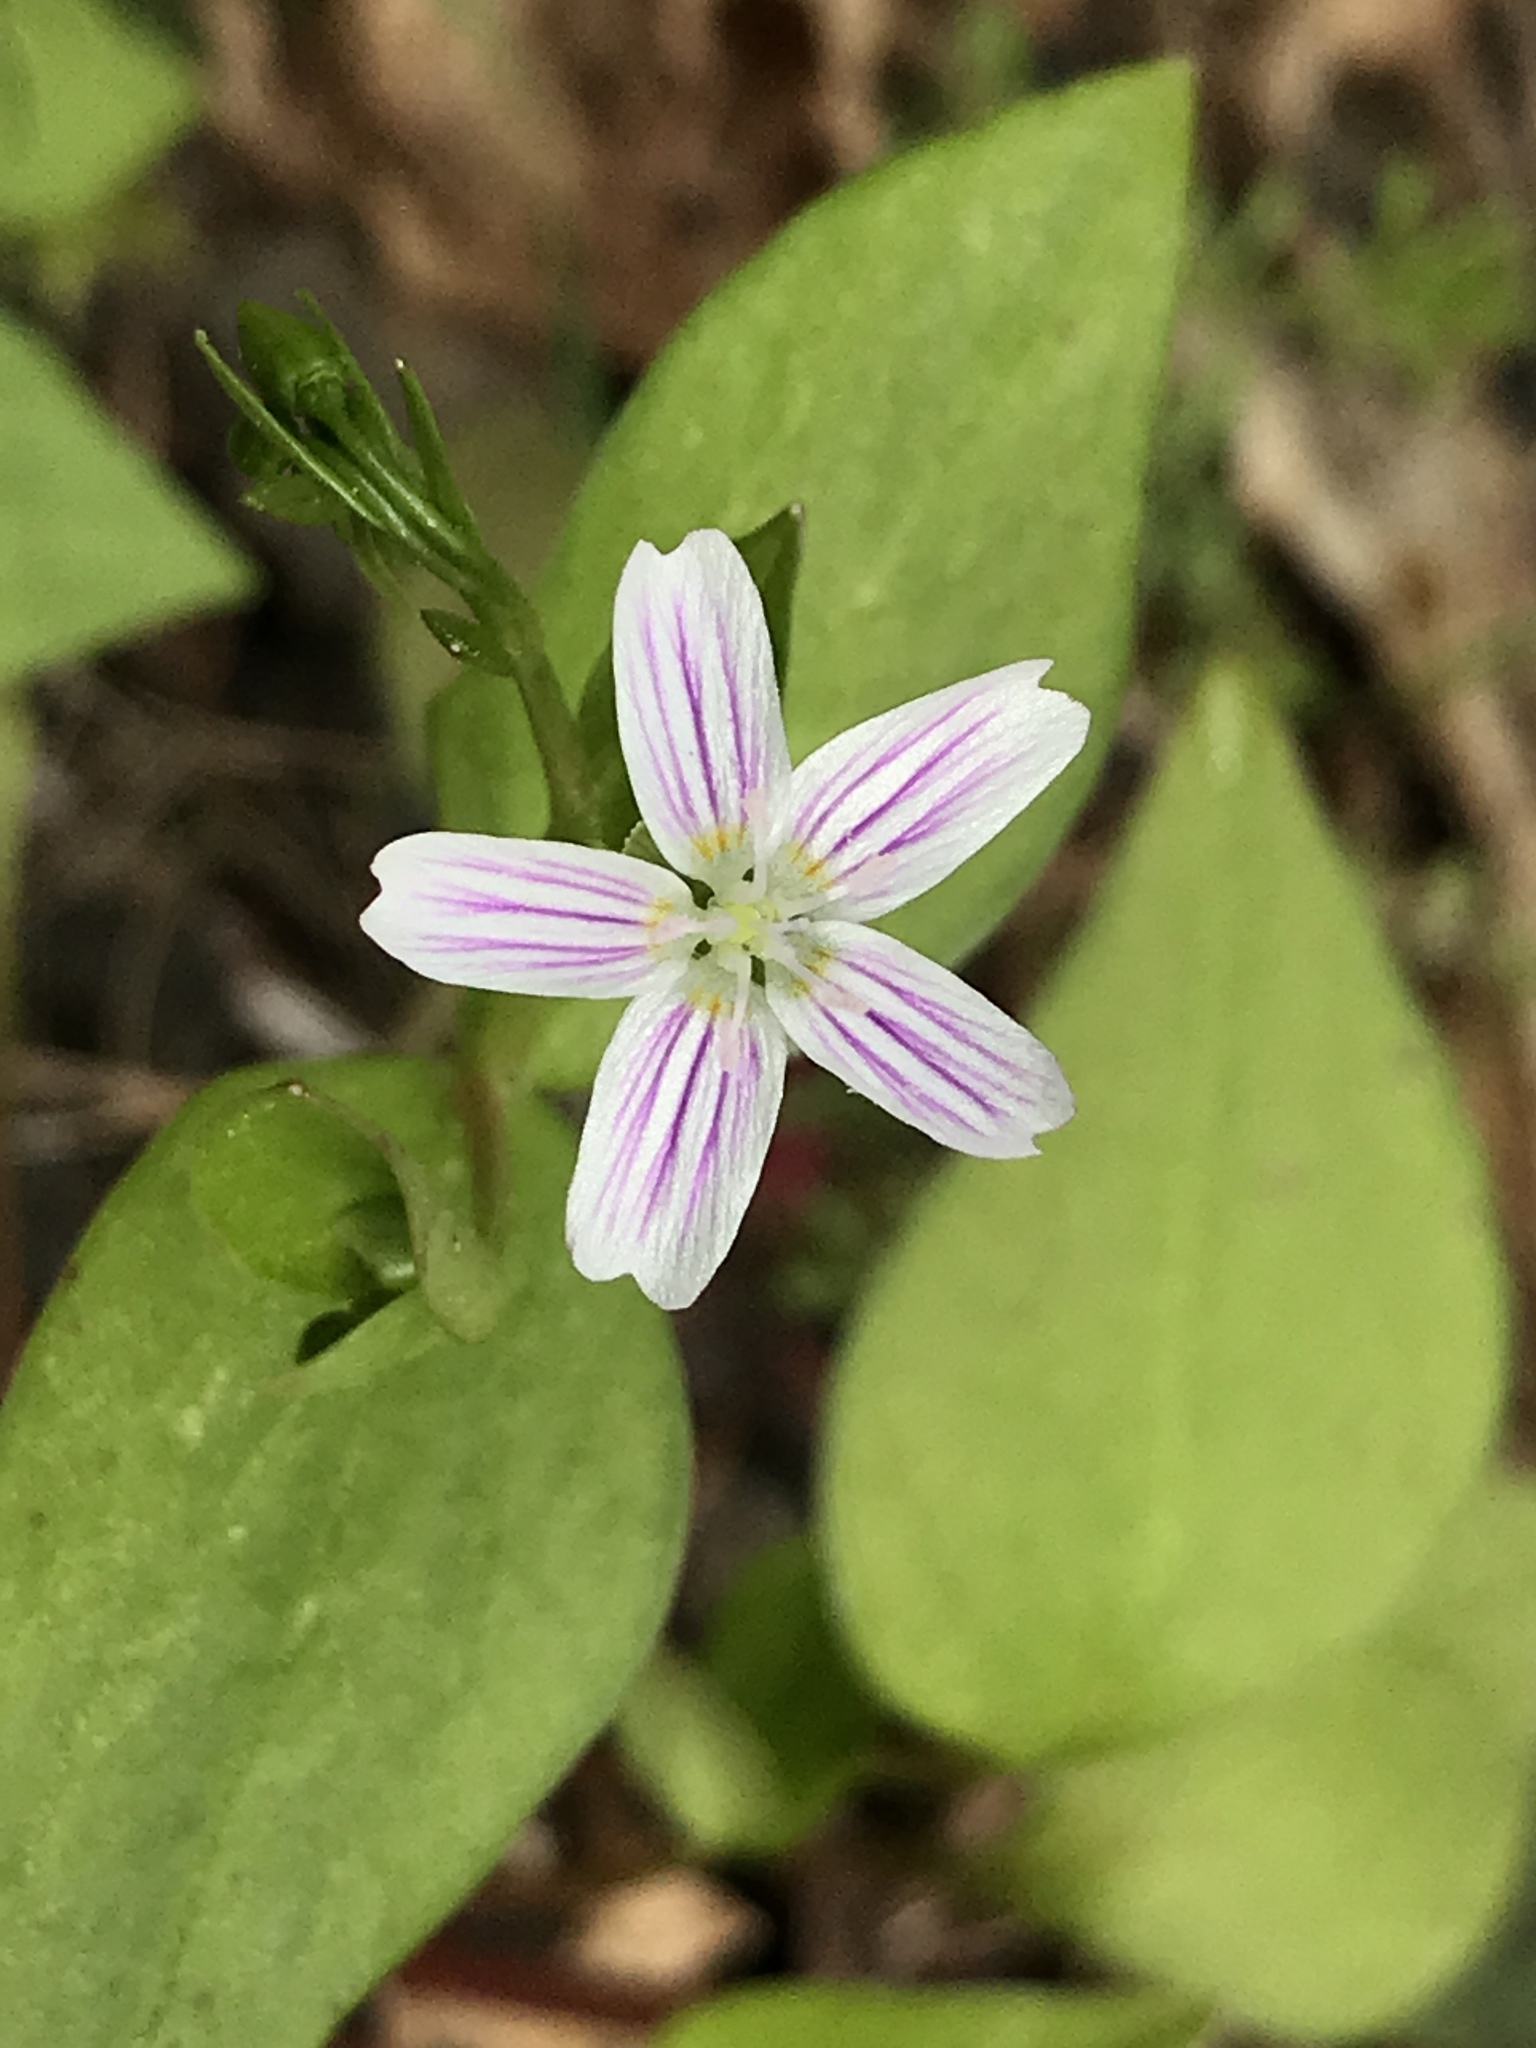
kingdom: Plantae
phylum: Tracheophyta
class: Magnoliopsida
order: Caryophyllales
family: Montiaceae
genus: Claytonia
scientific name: Claytonia sibirica
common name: Pink purslane
